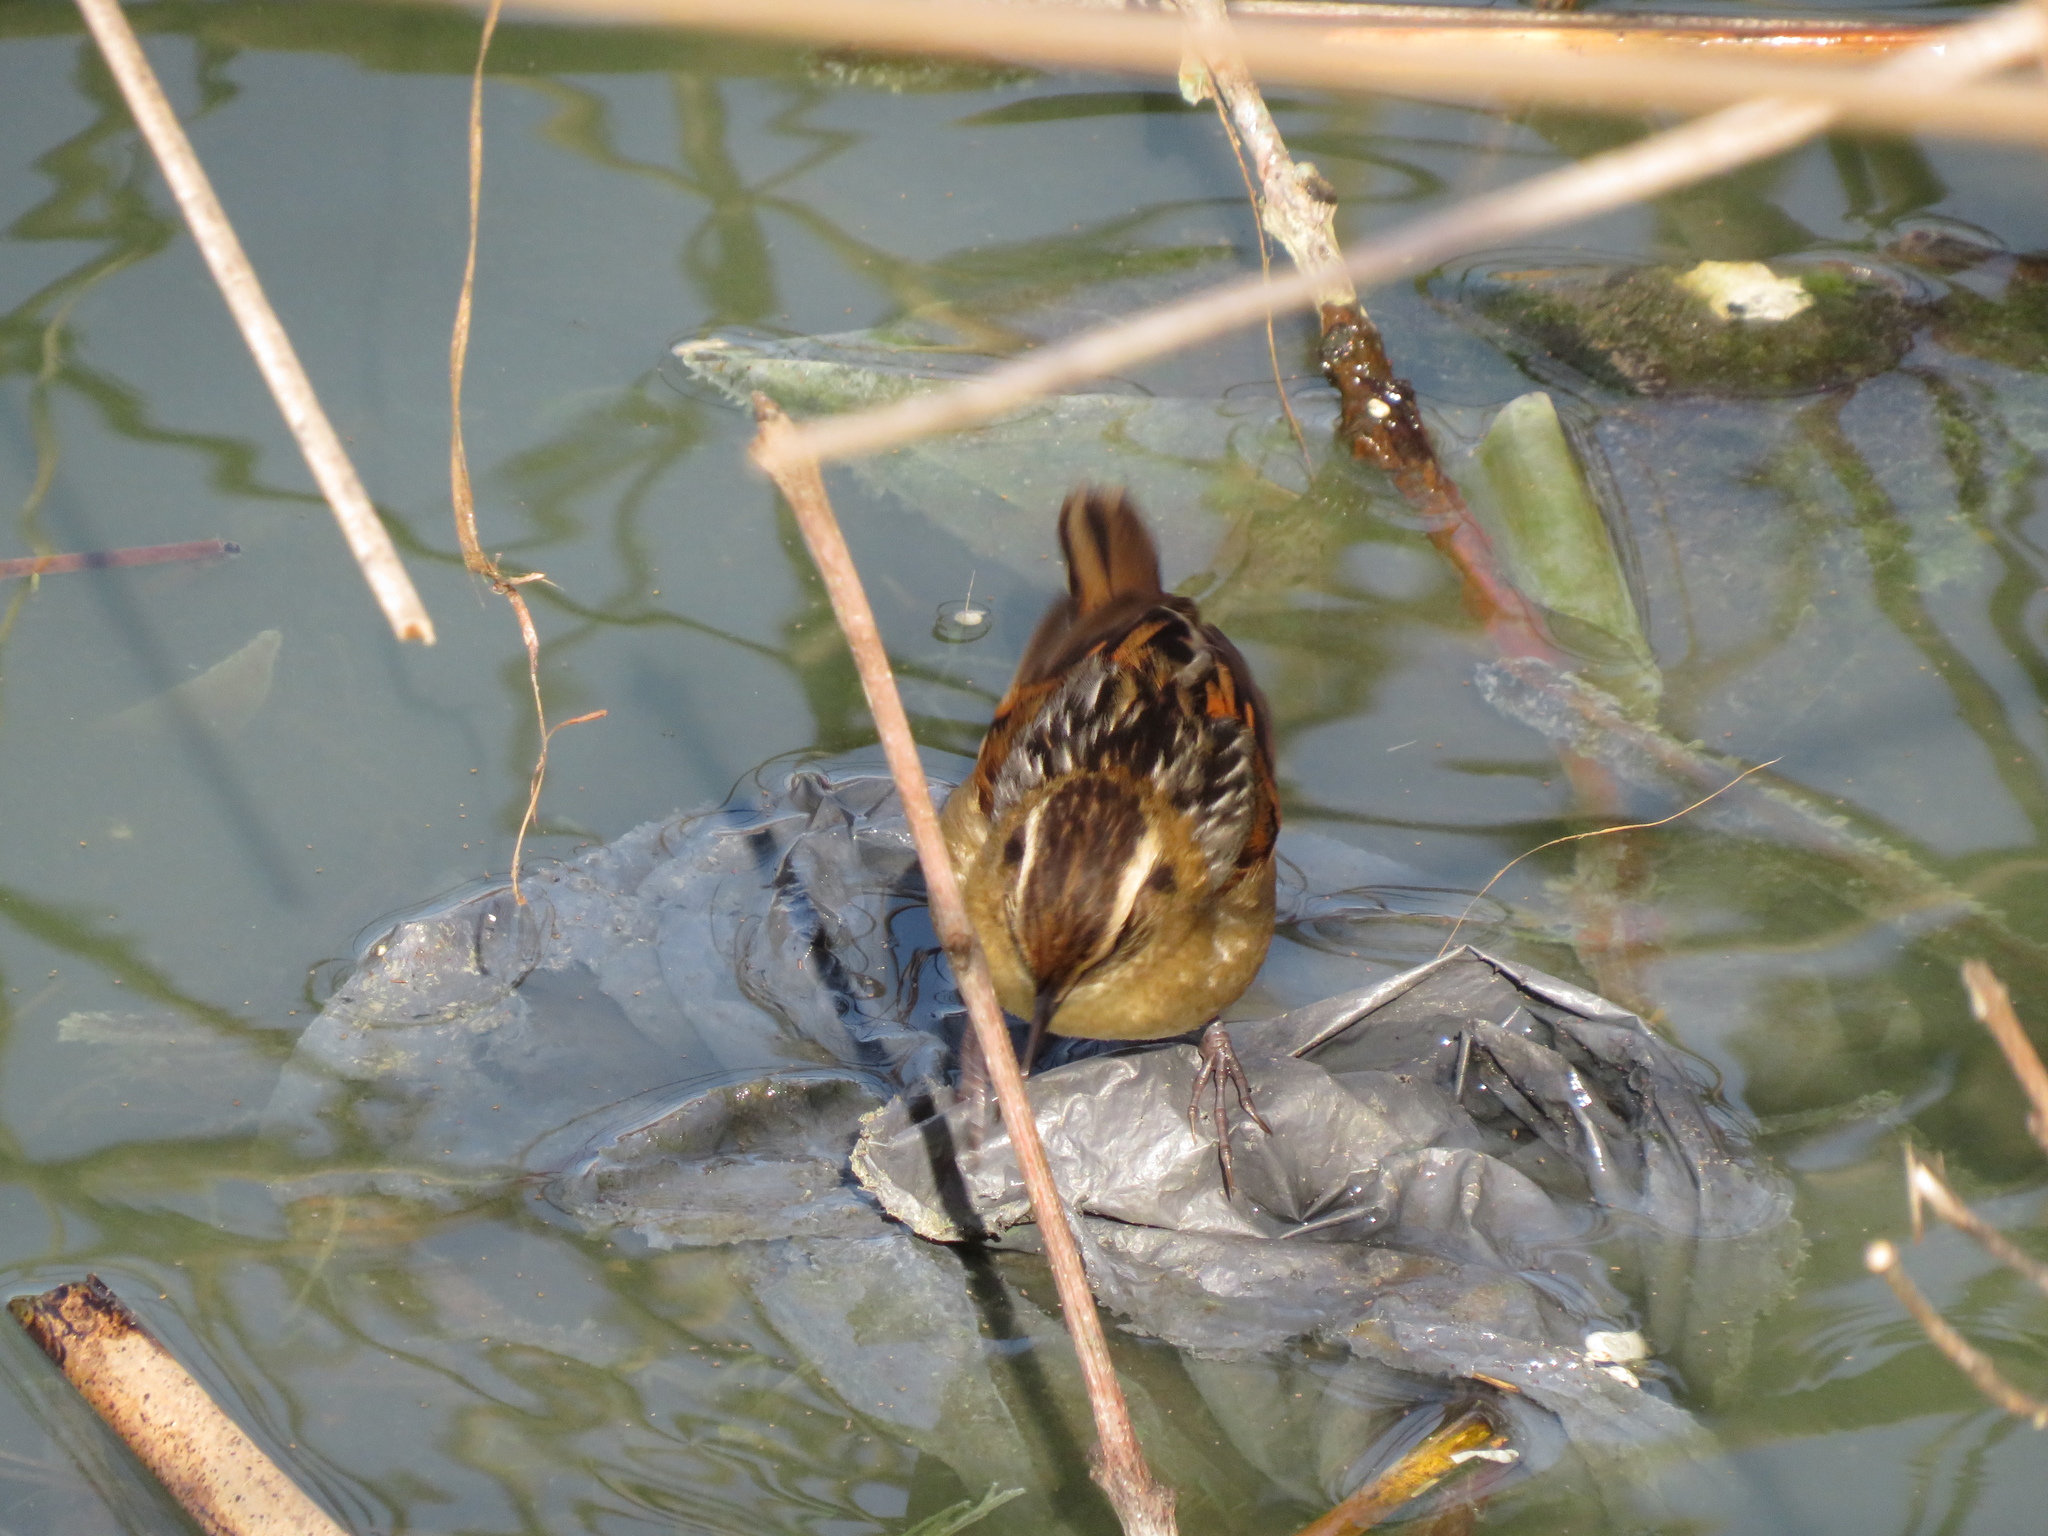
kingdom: Animalia
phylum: Chordata
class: Aves
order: Passeriformes
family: Furnariidae
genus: Phleocryptes
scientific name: Phleocryptes melanops
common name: Wren-like rushbird
